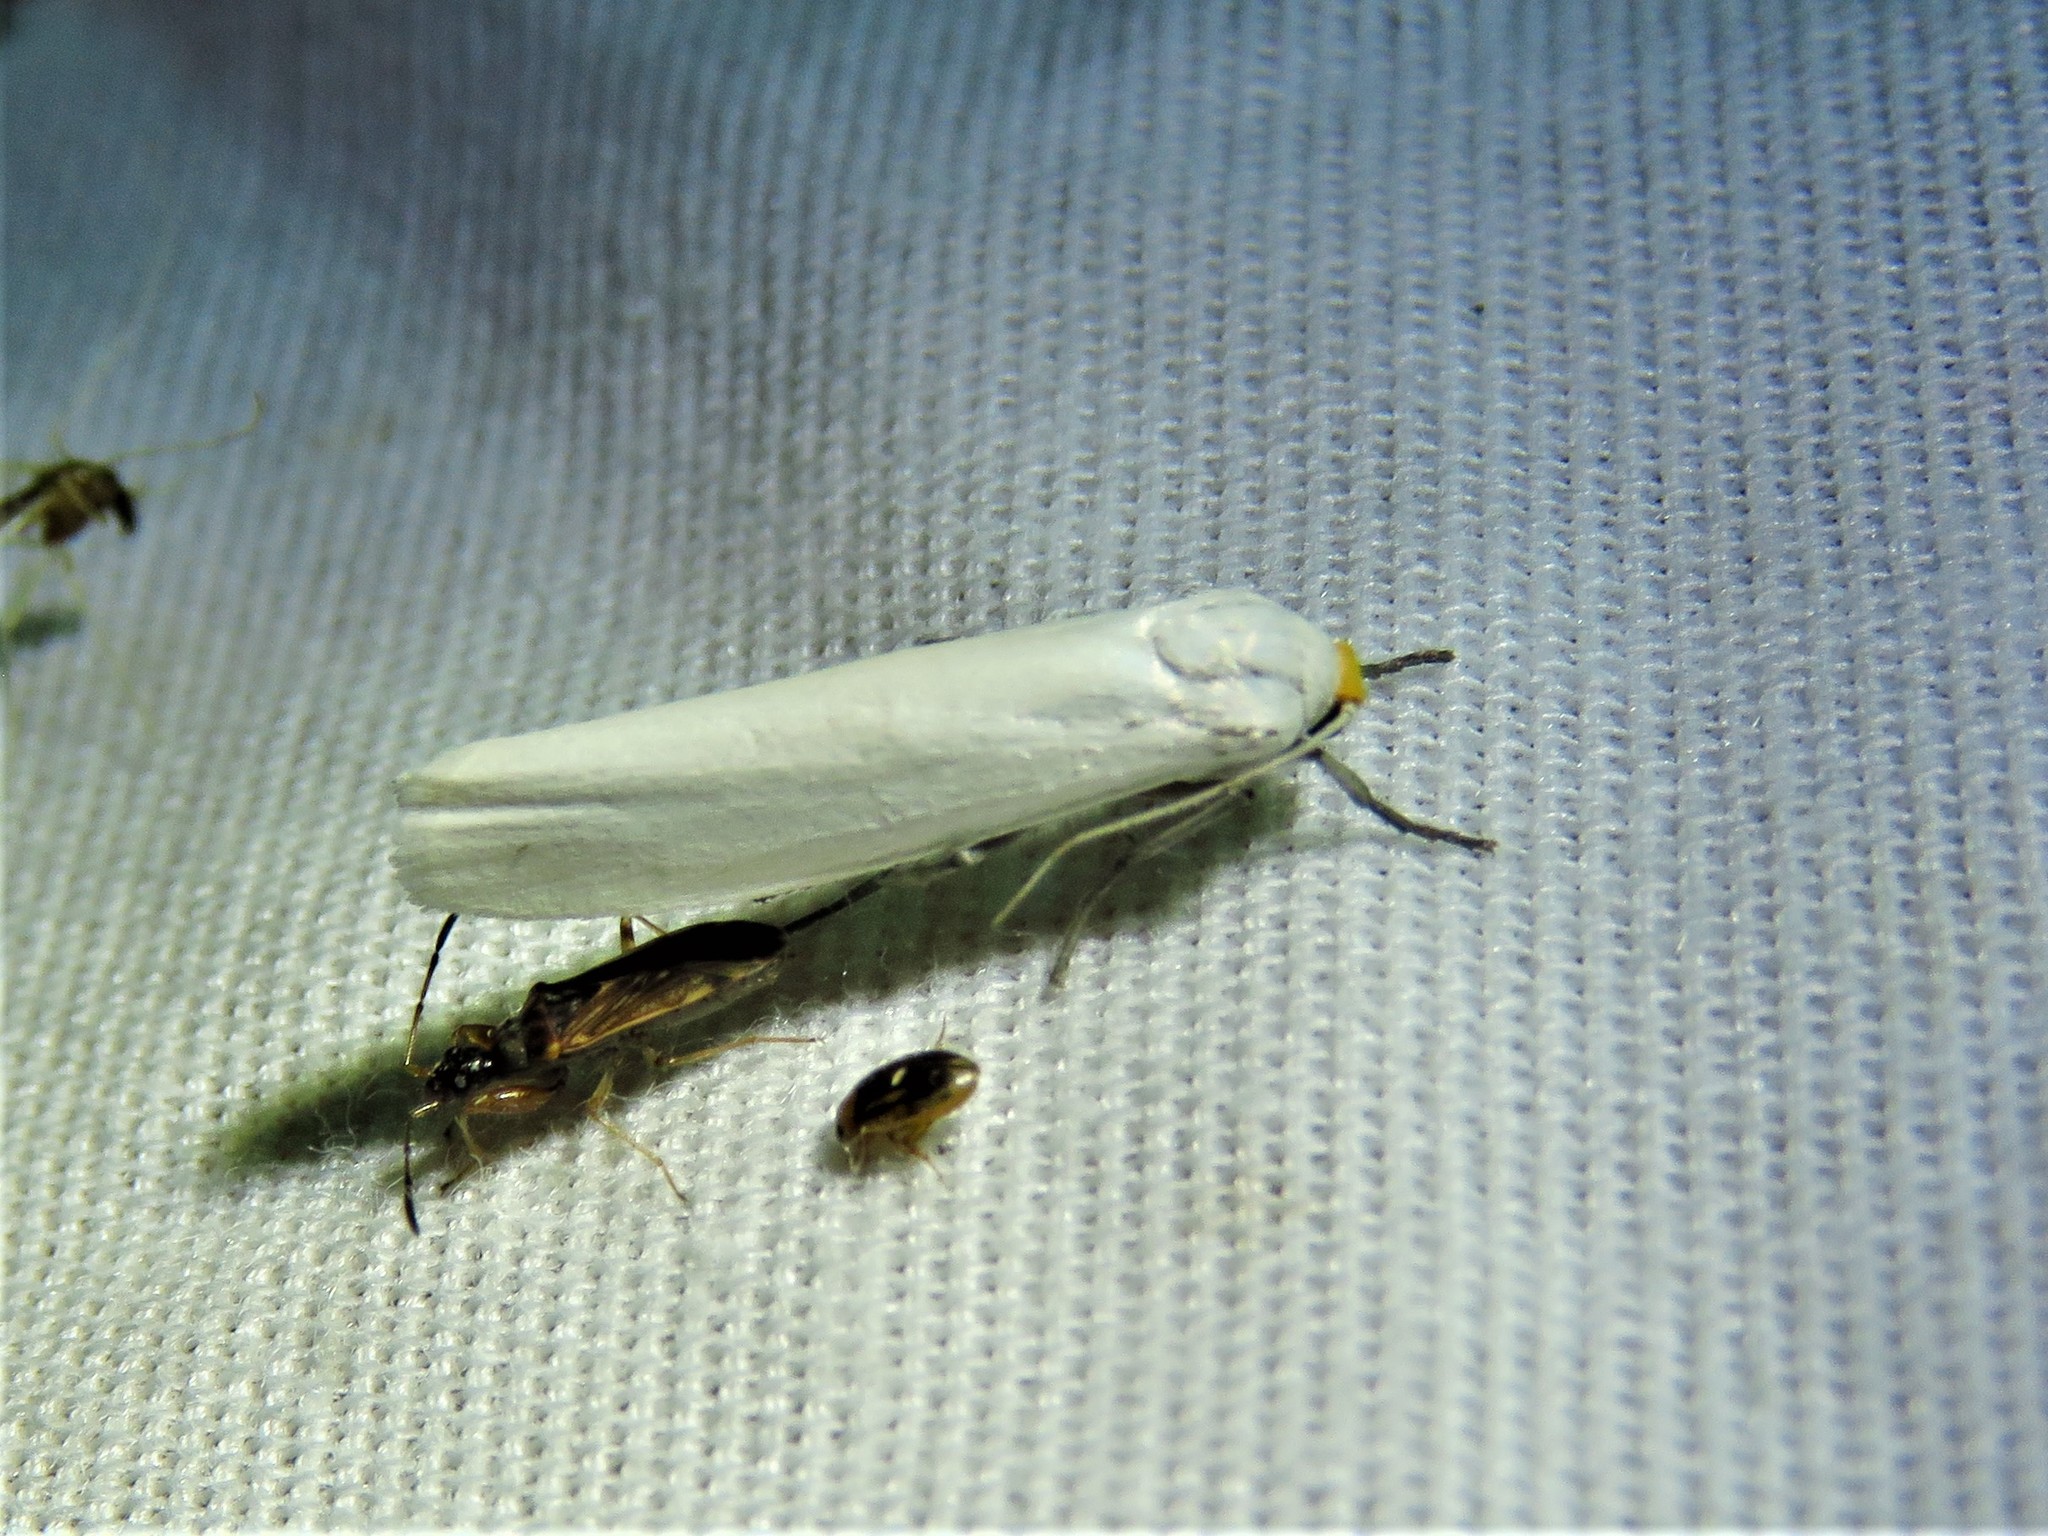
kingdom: Animalia
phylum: Arthropoda
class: Insecta
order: Lepidoptera
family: Erebidae
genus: Crambidia
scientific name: Crambidia cephalica
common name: Yellow-headed lichen moth
